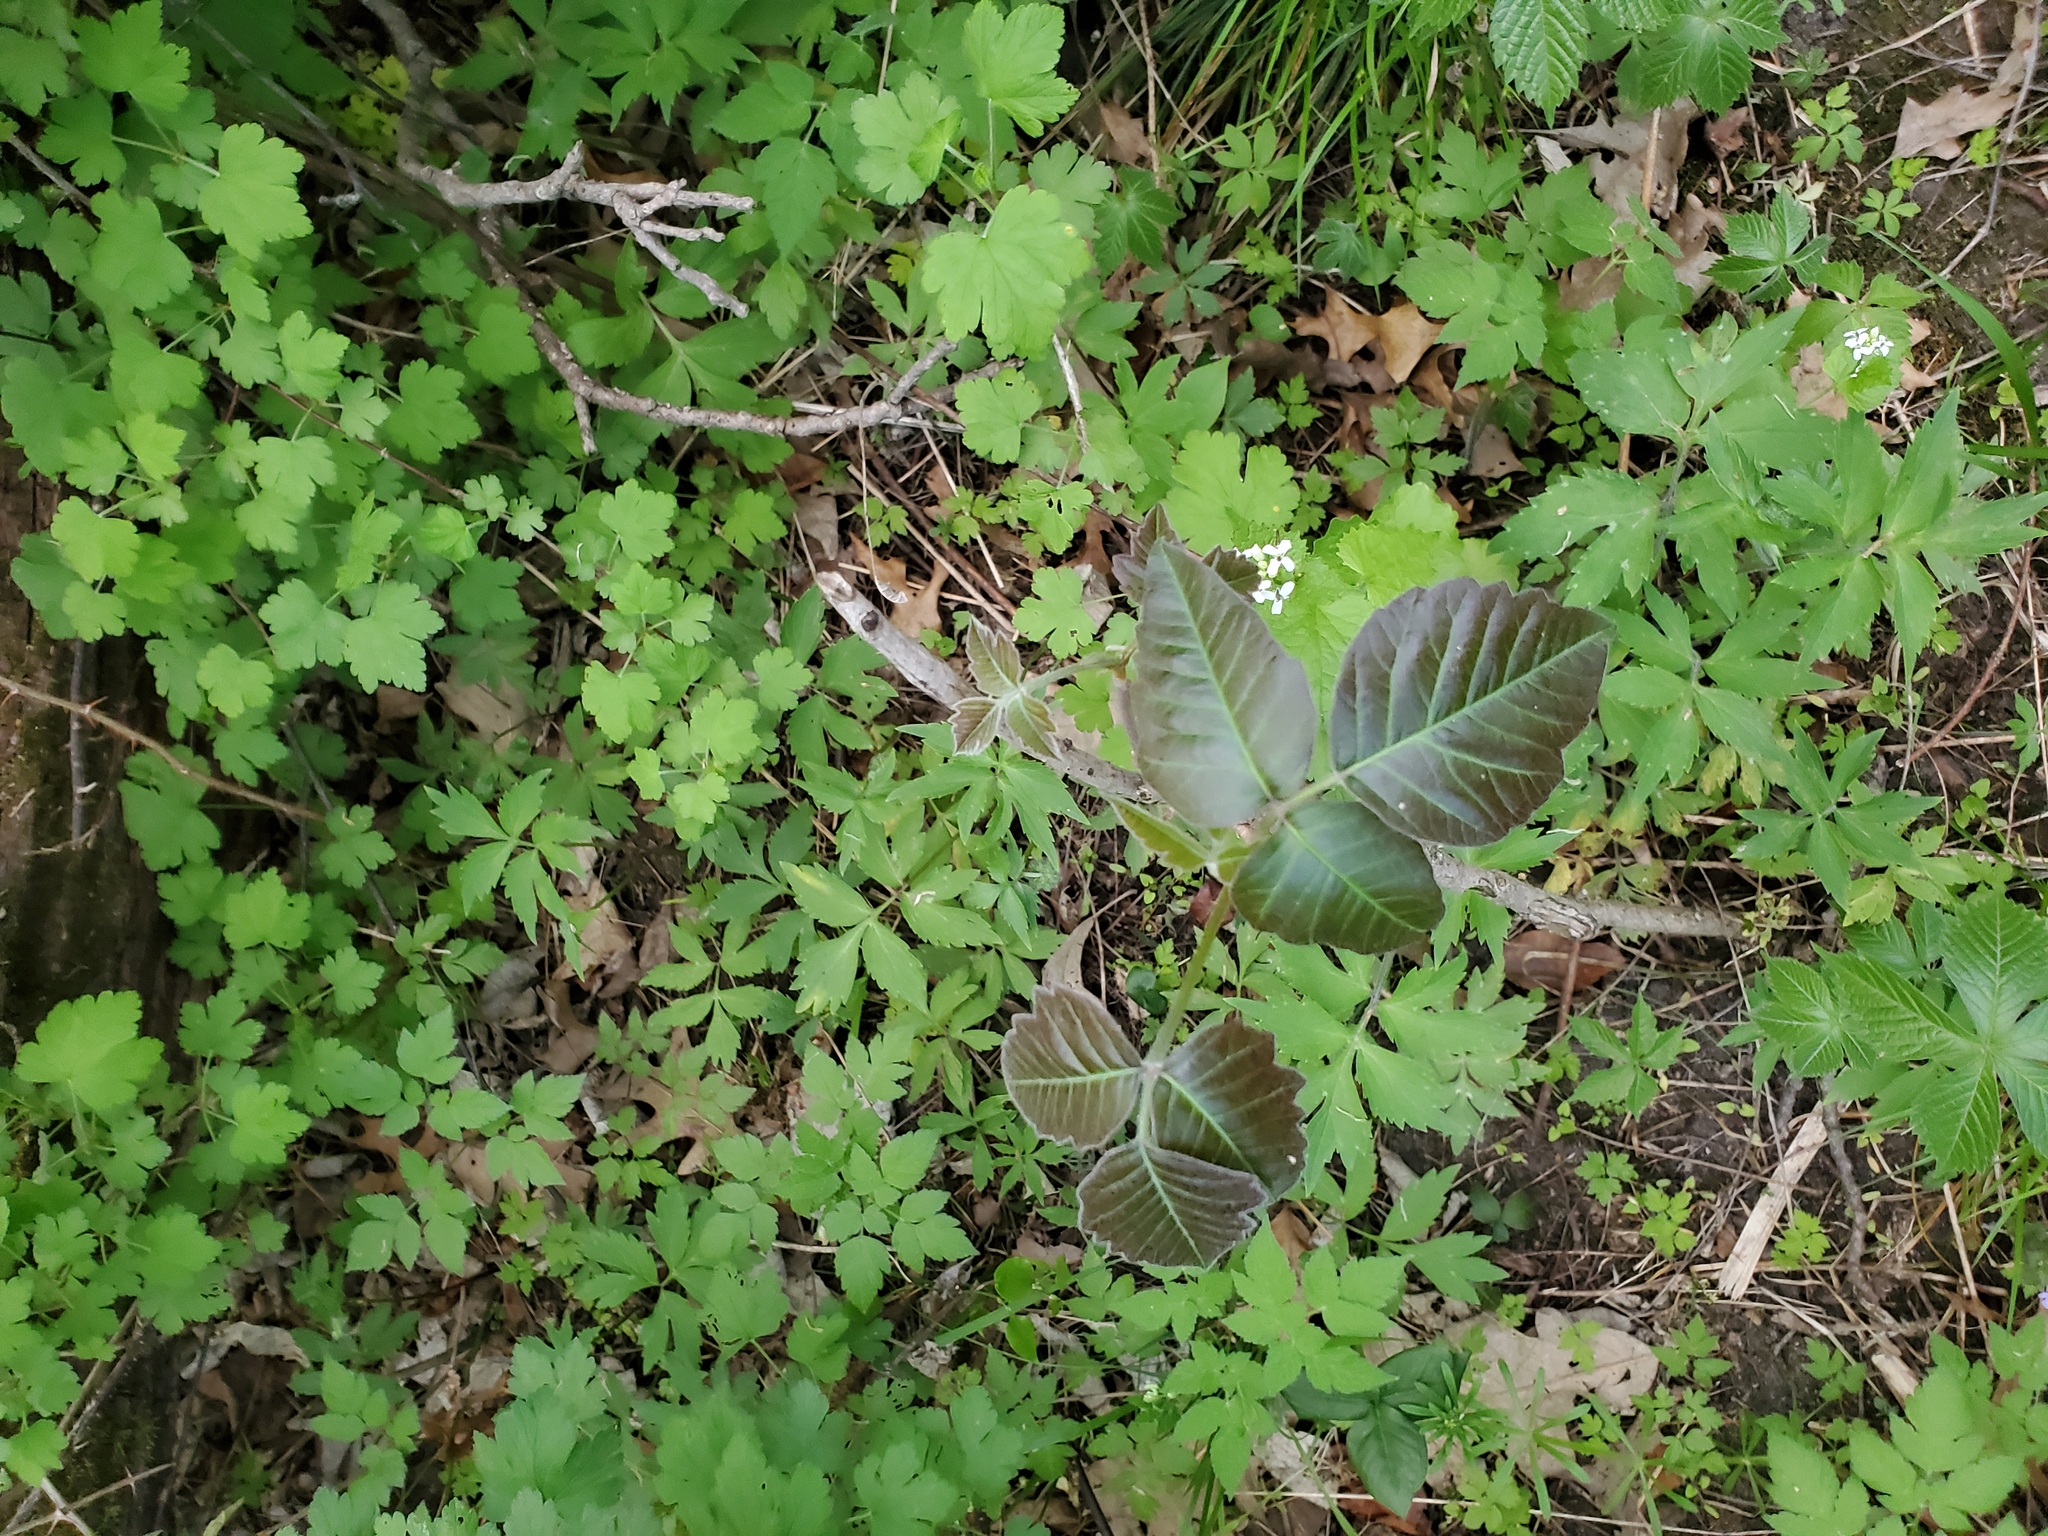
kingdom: Plantae
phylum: Tracheophyta
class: Magnoliopsida
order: Sapindales
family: Anacardiaceae
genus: Toxicodendron
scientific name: Toxicodendron radicans
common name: Poison ivy
